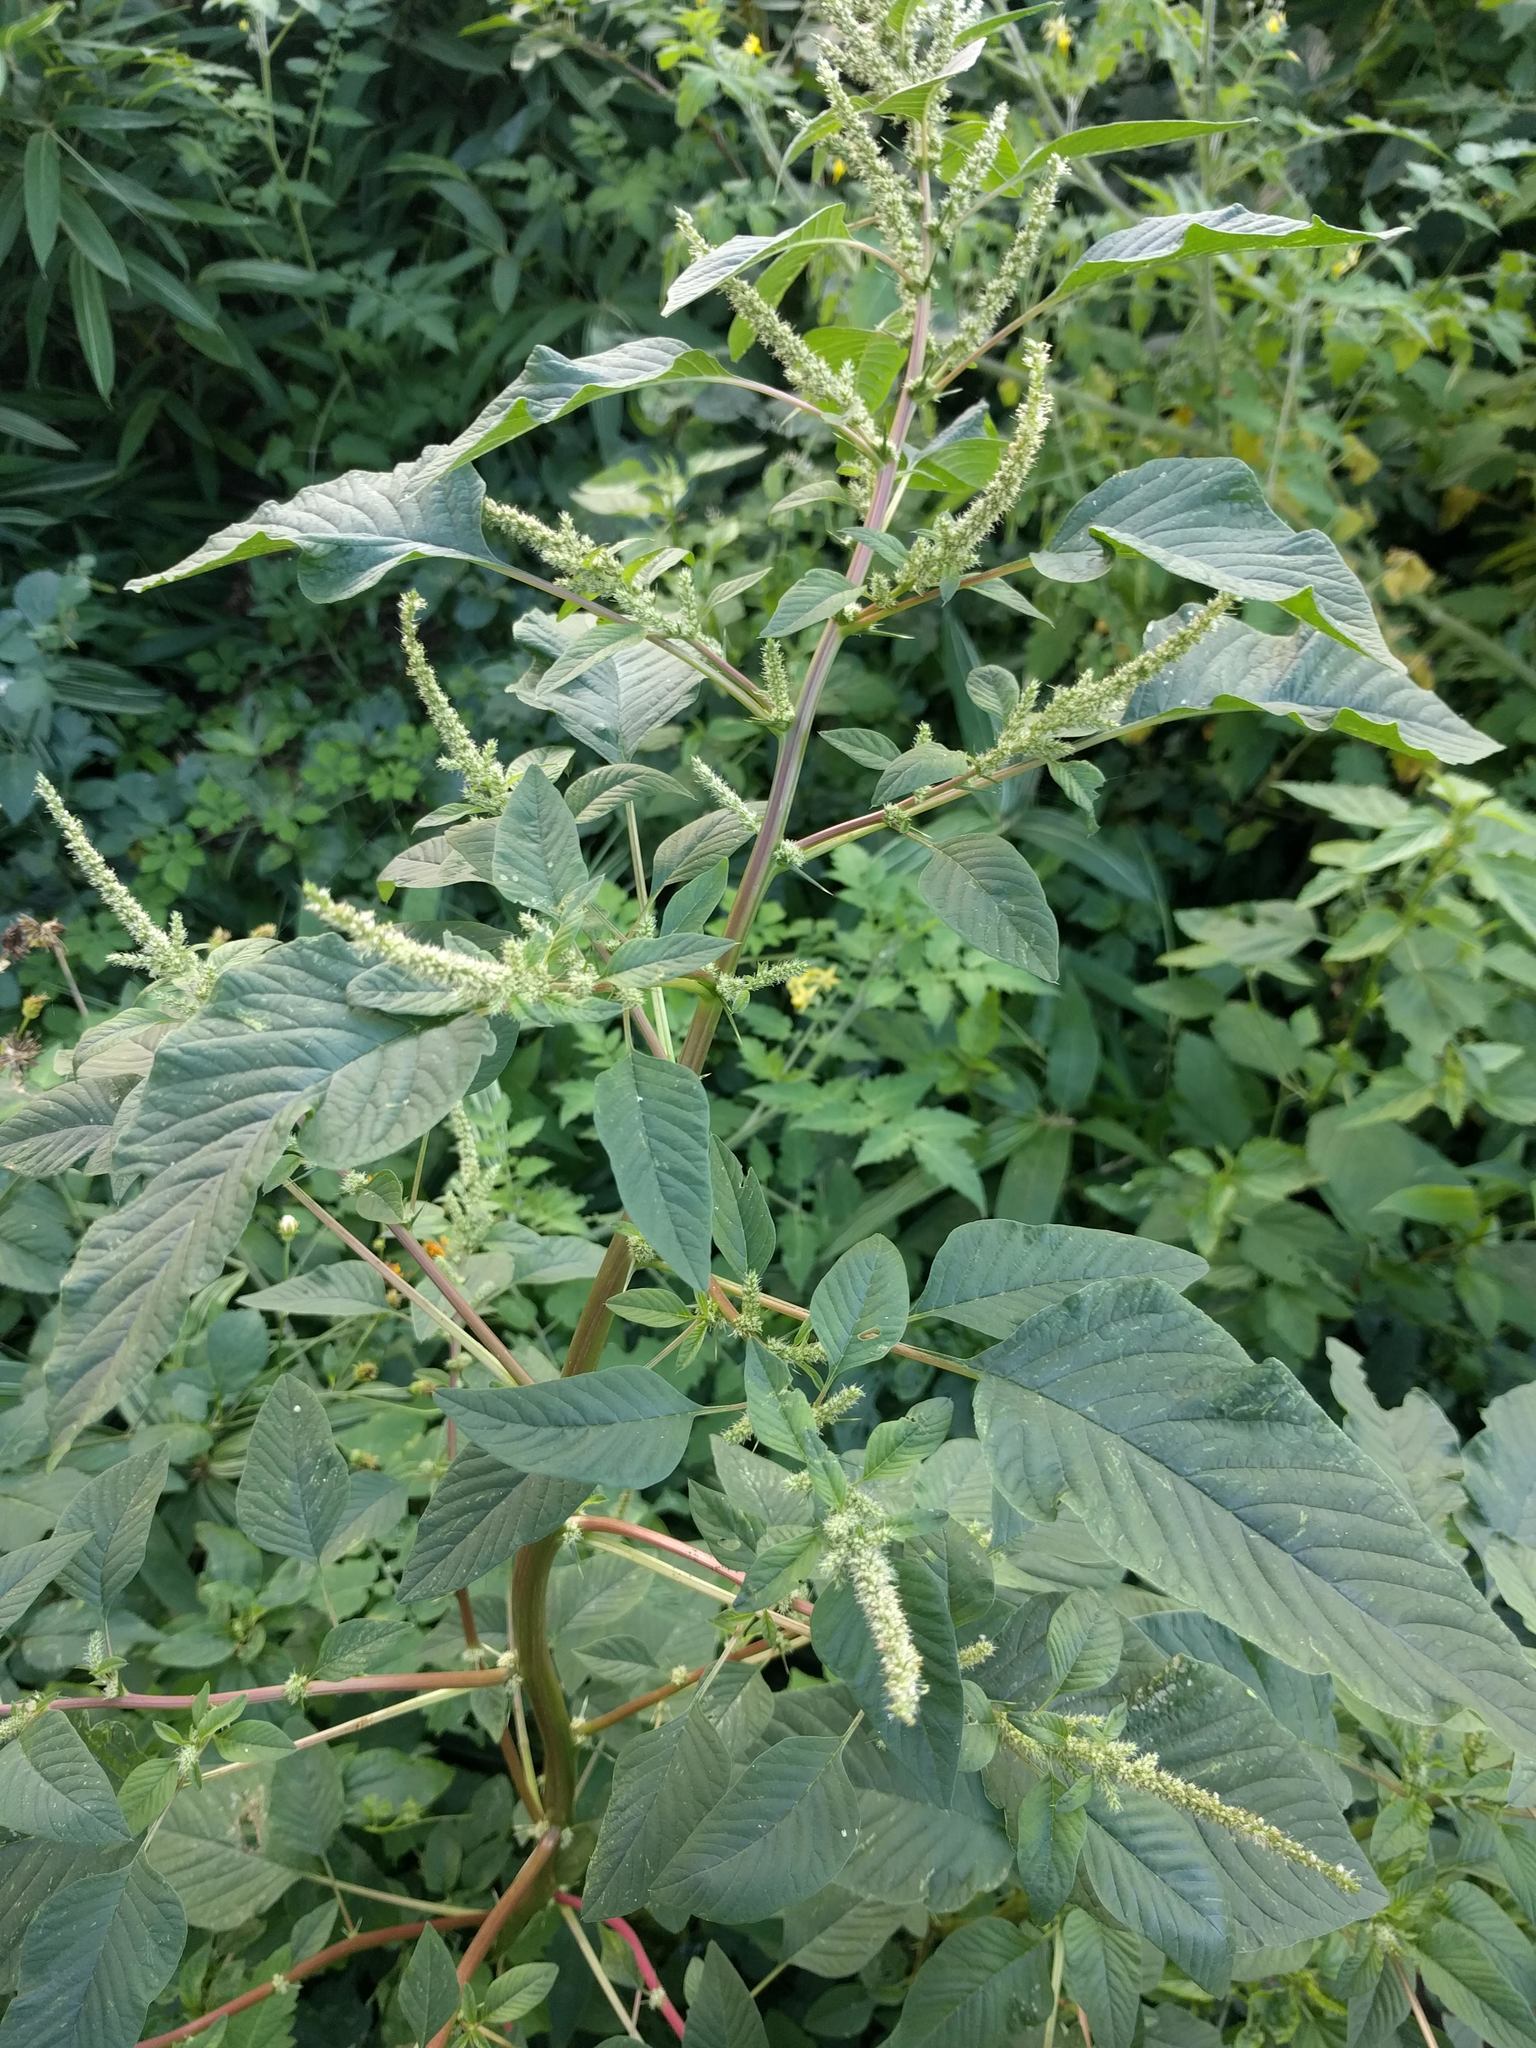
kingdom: Plantae
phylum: Tracheophyta
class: Magnoliopsida
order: Caryophyllales
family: Amaranthaceae
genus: Amaranthus
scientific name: Amaranthus spinosus
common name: Spiny amaranth
